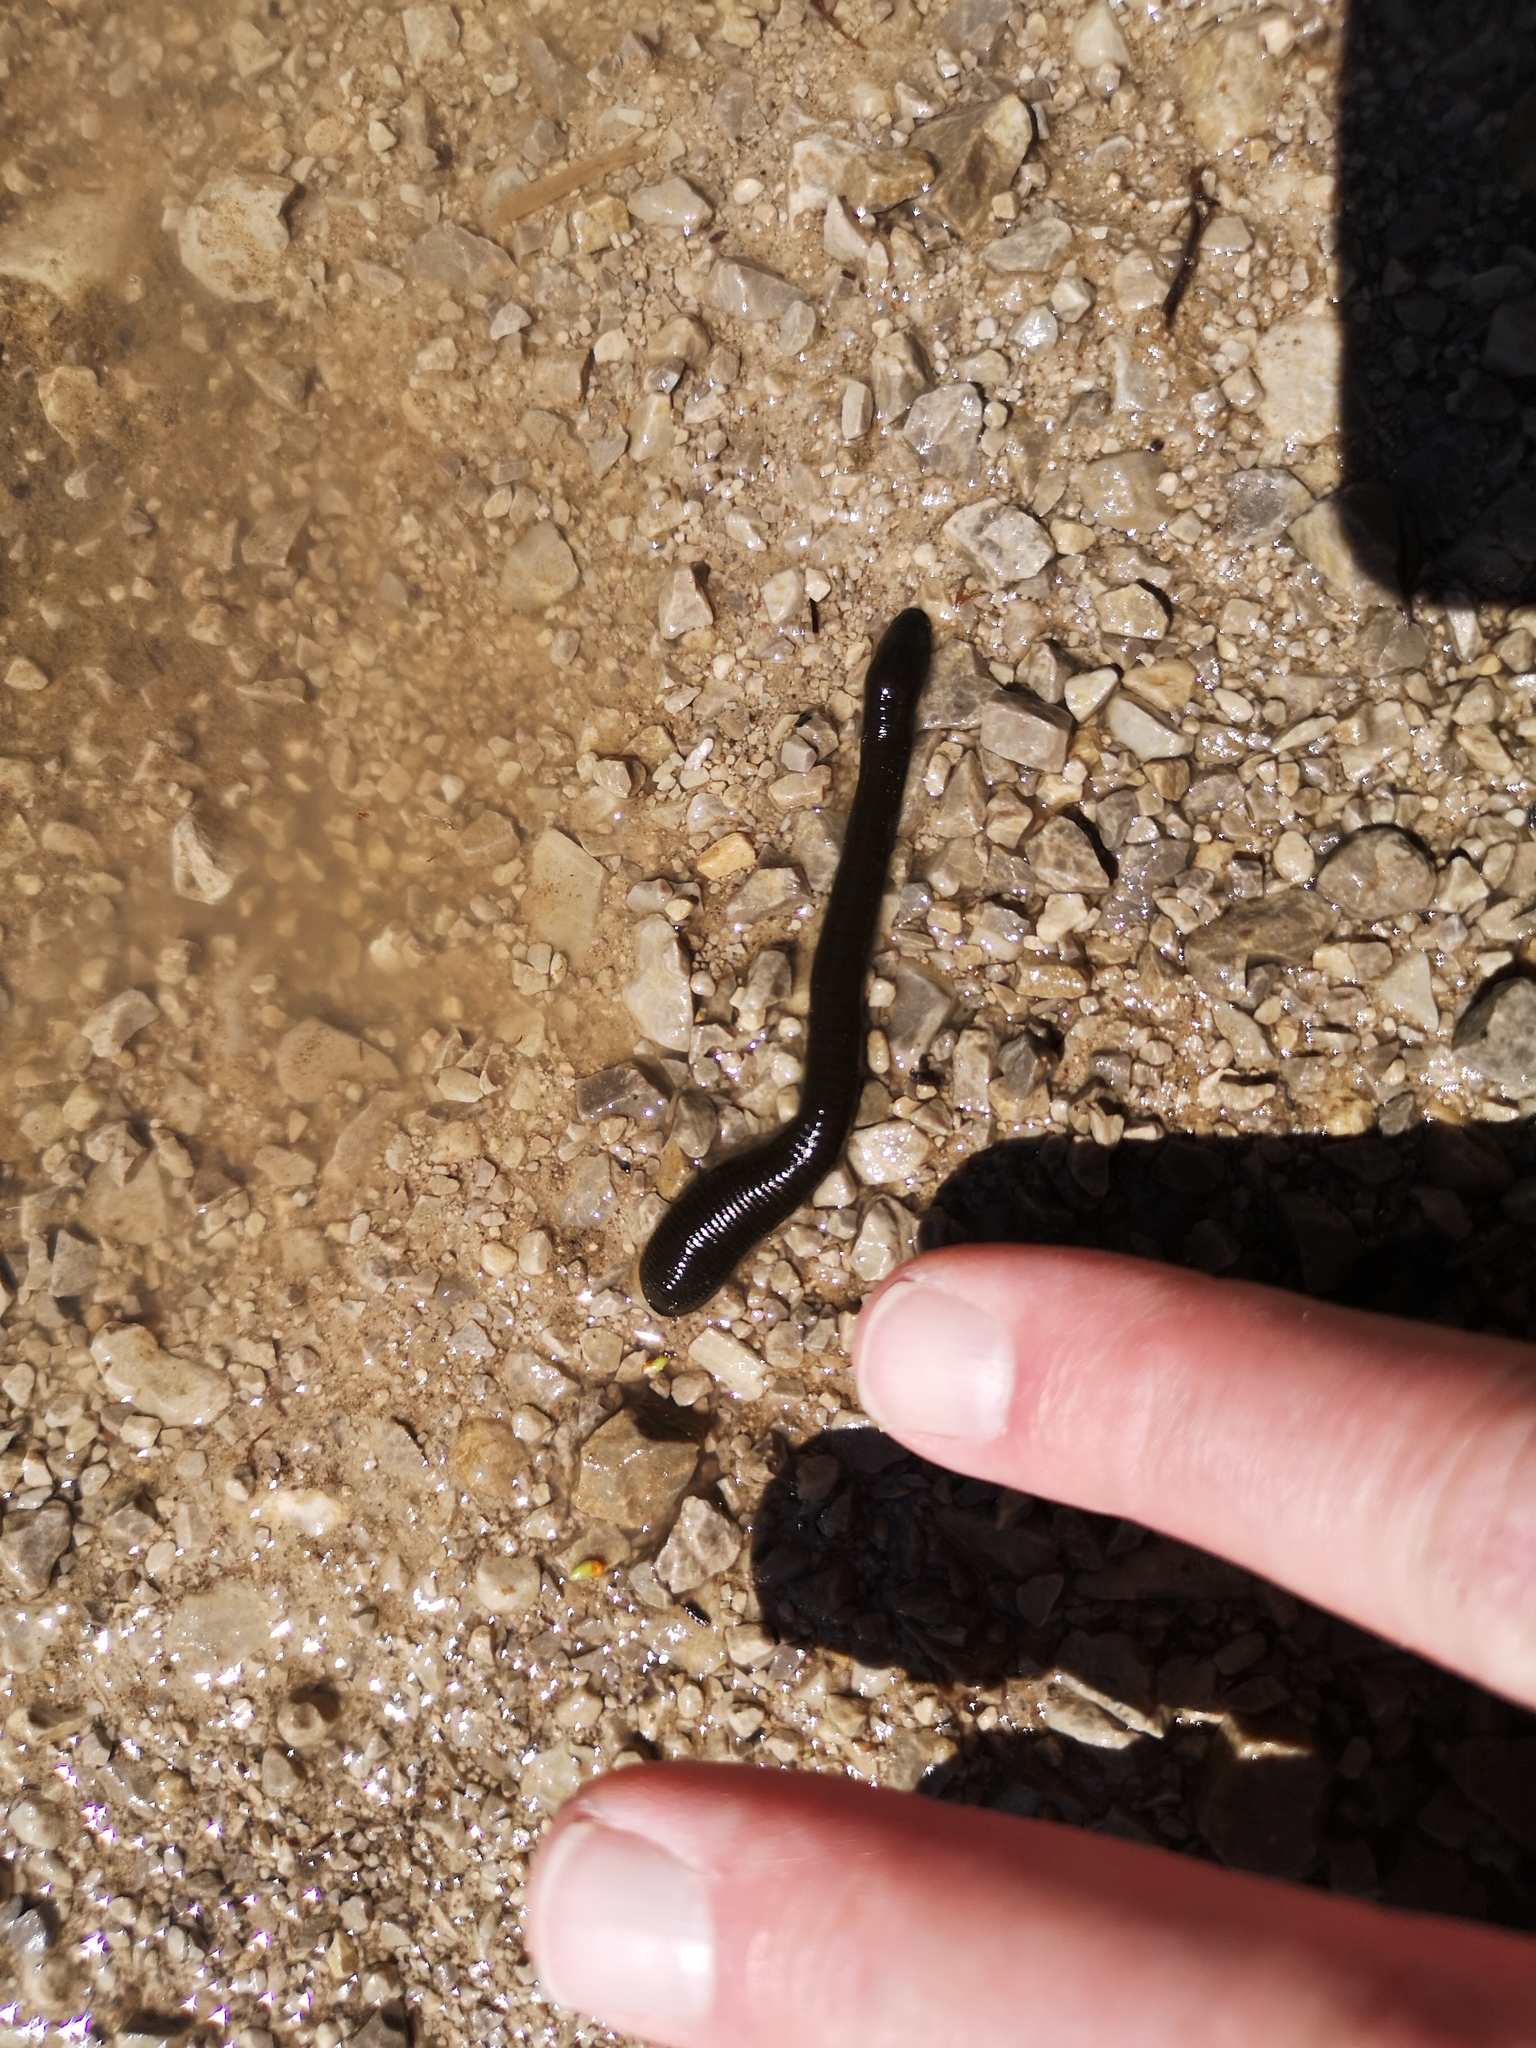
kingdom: Animalia
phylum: Annelida
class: Clitellata
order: Arhynchobdellida
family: Haemopidae
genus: Haemopis
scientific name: Haemopis sanguisuga
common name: Horse leech
